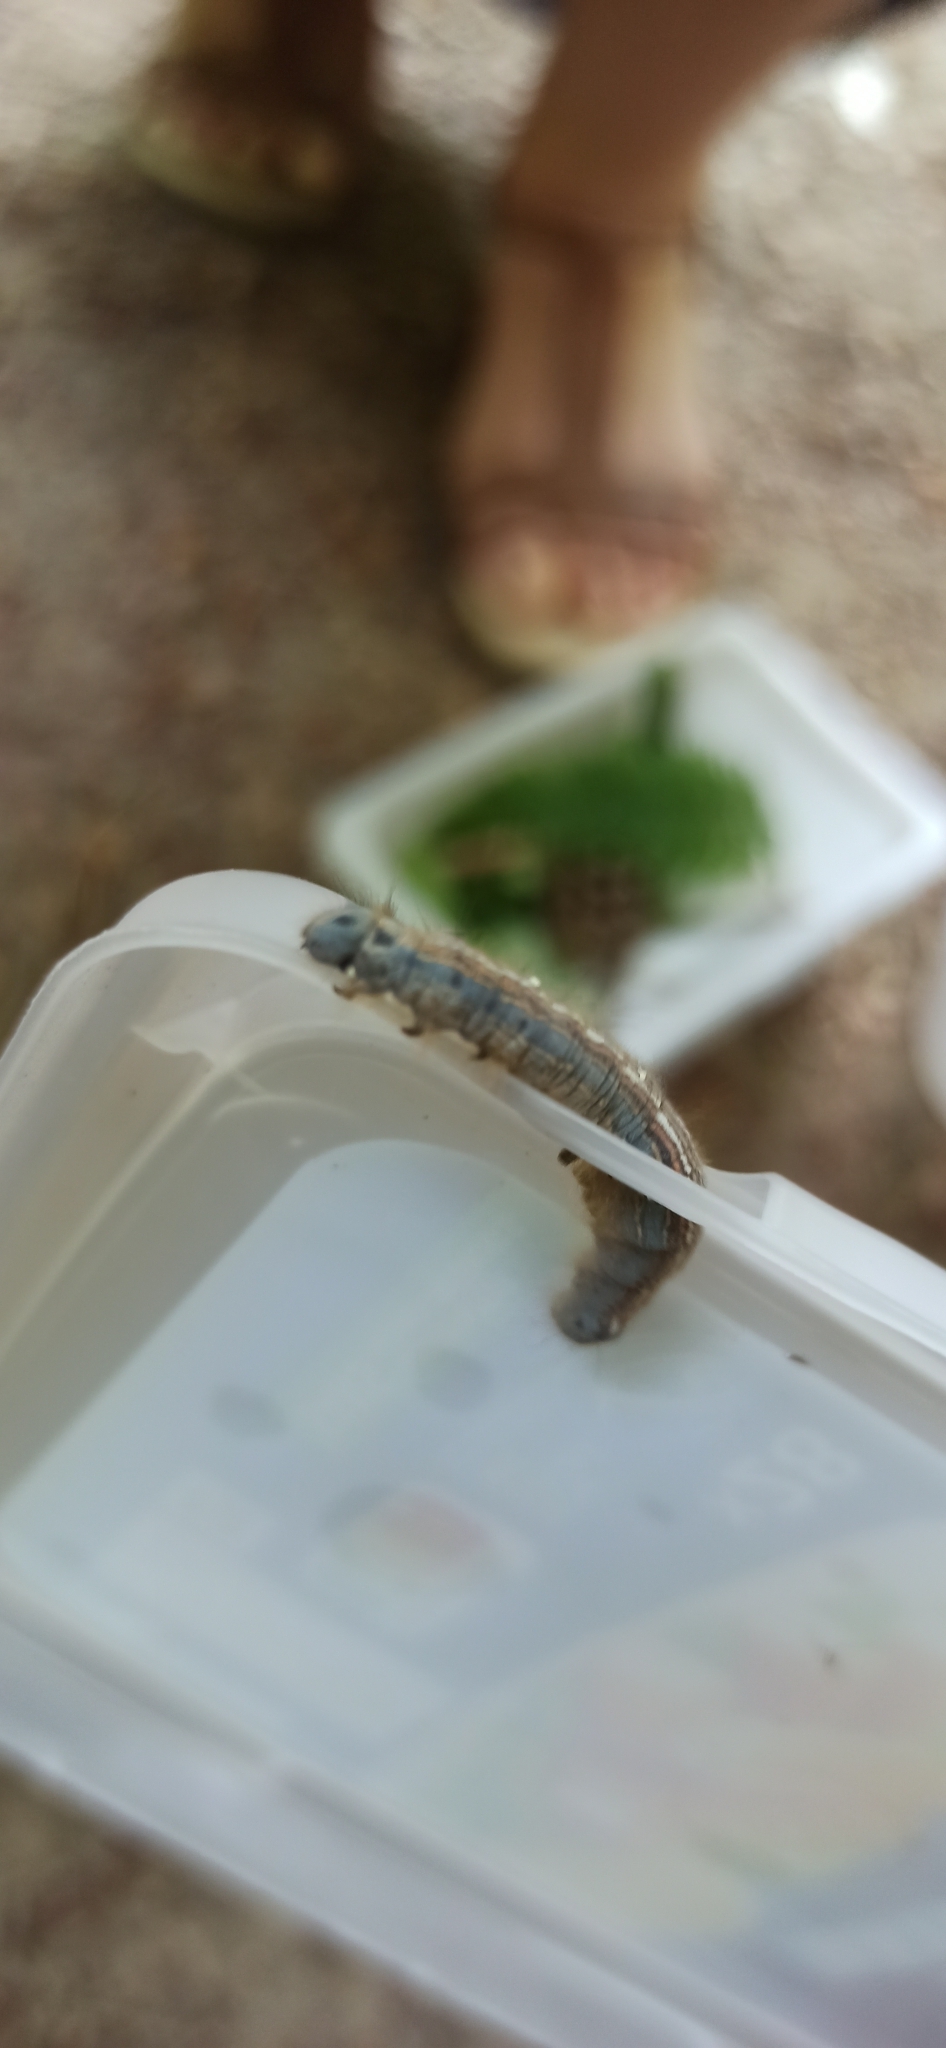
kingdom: Animalia
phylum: Arthropoda
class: Insecta
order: Lepidoptera
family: Lasiocampidae
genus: Malacosoma
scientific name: Malacosoma neustria
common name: The lackey
